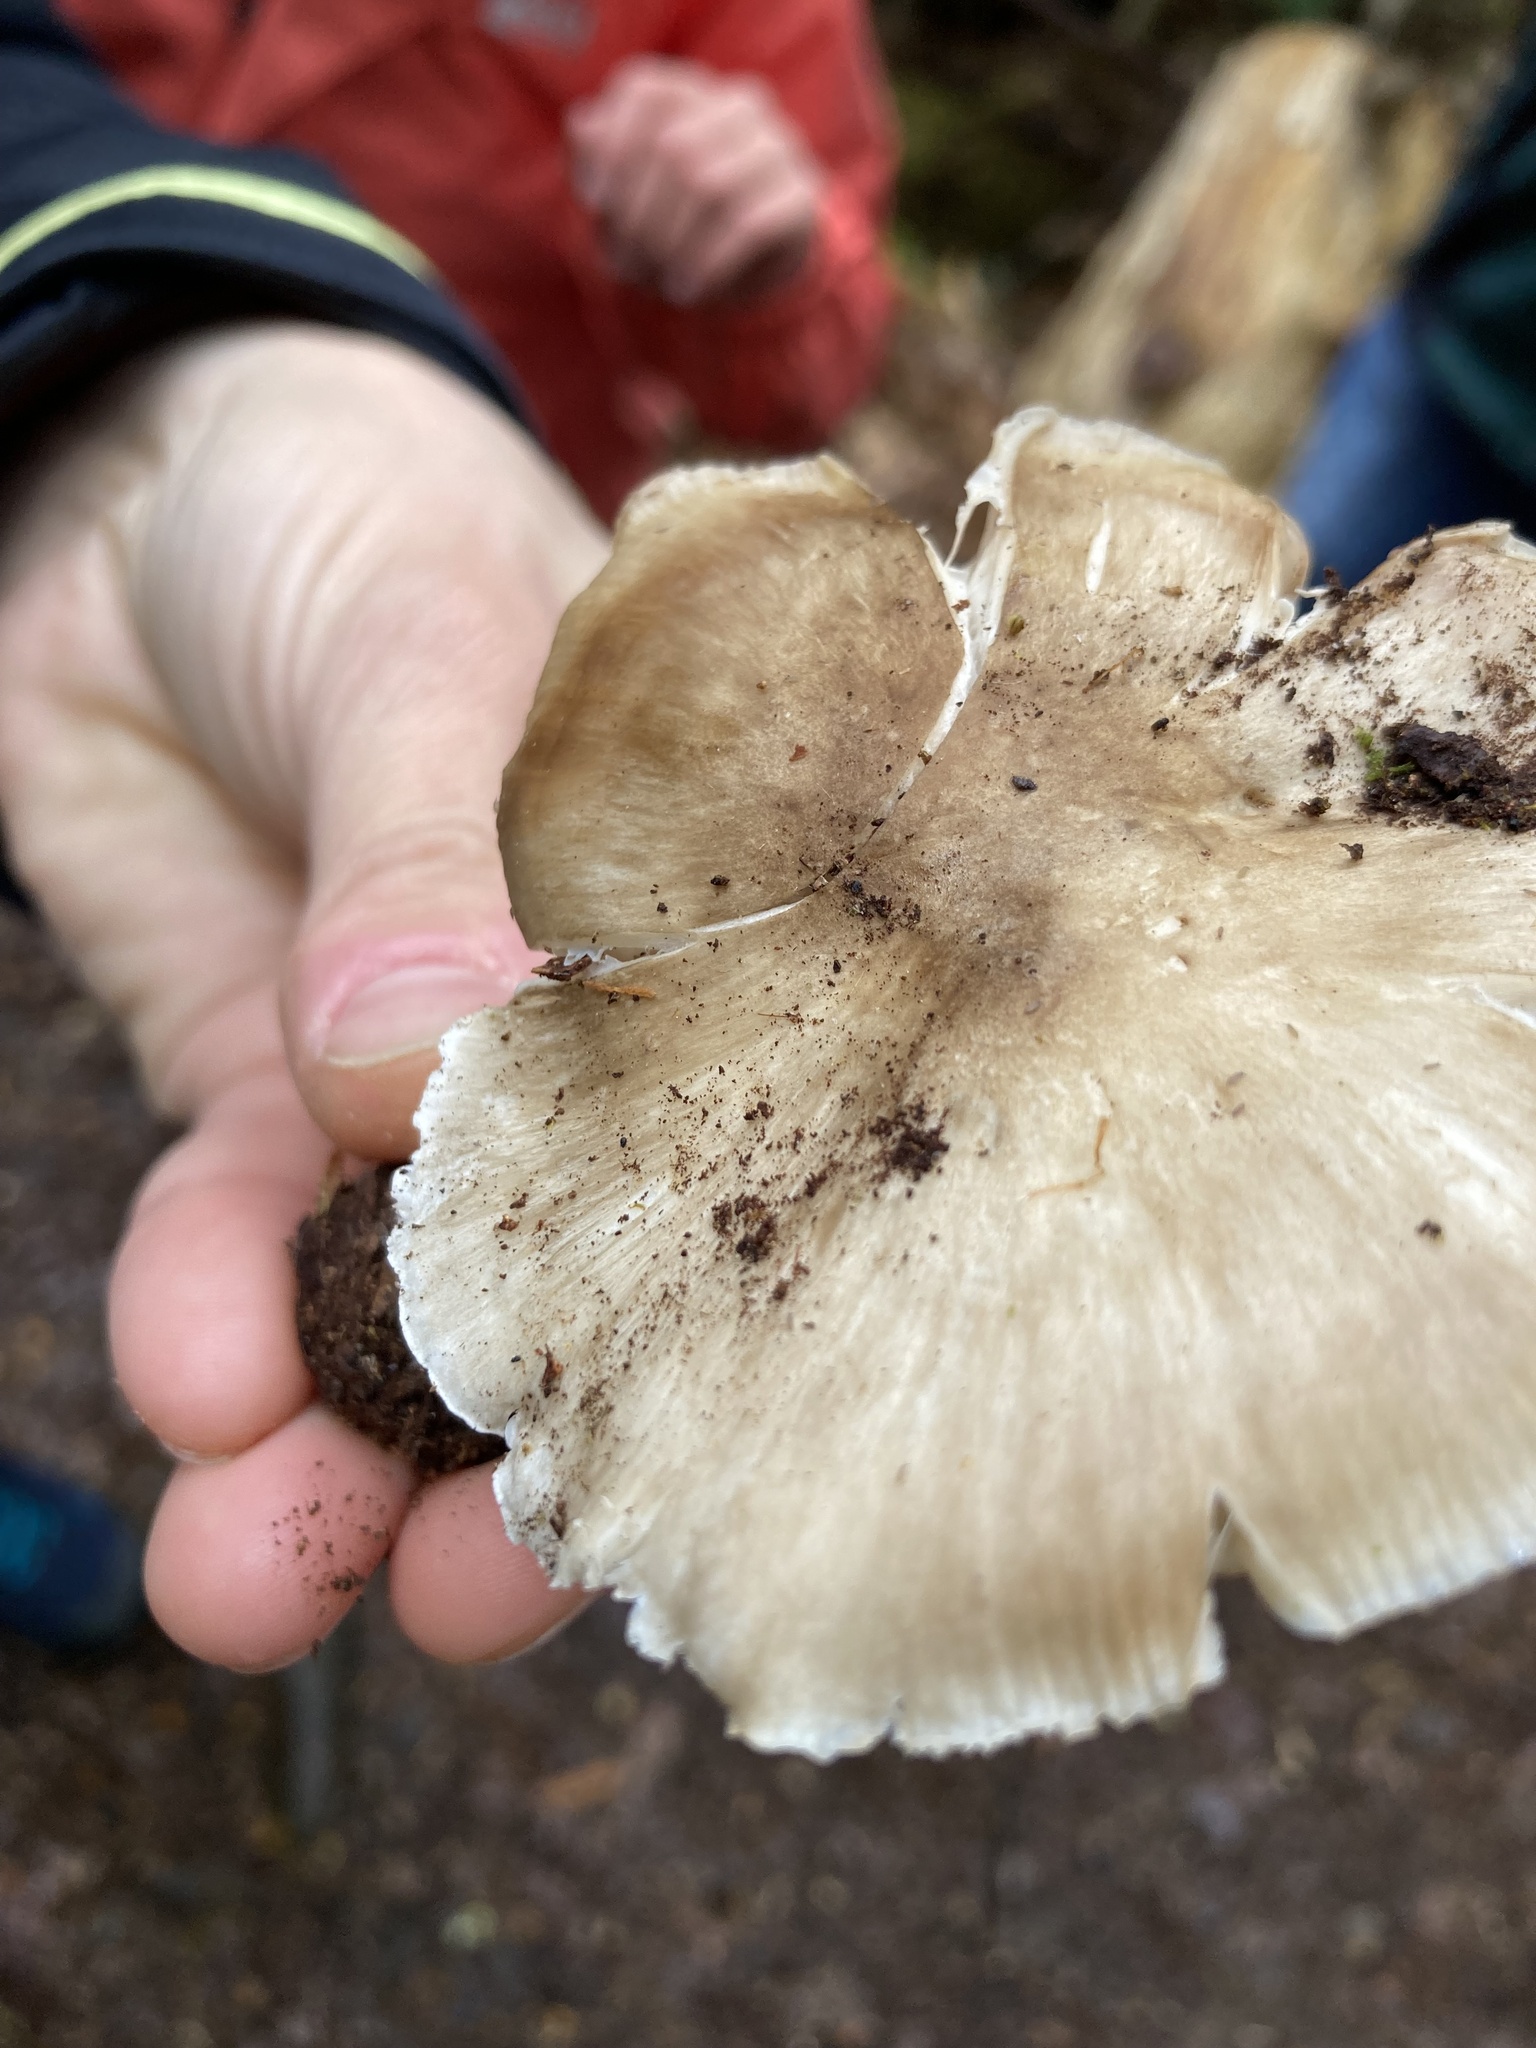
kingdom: Fungi
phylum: Basidiomycota
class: Agaricomycetes
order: Agaricales
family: Tricholomataceae
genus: Megacollybia
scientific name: Megacollybia rodmanii
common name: Eastern american platterful mushroom
